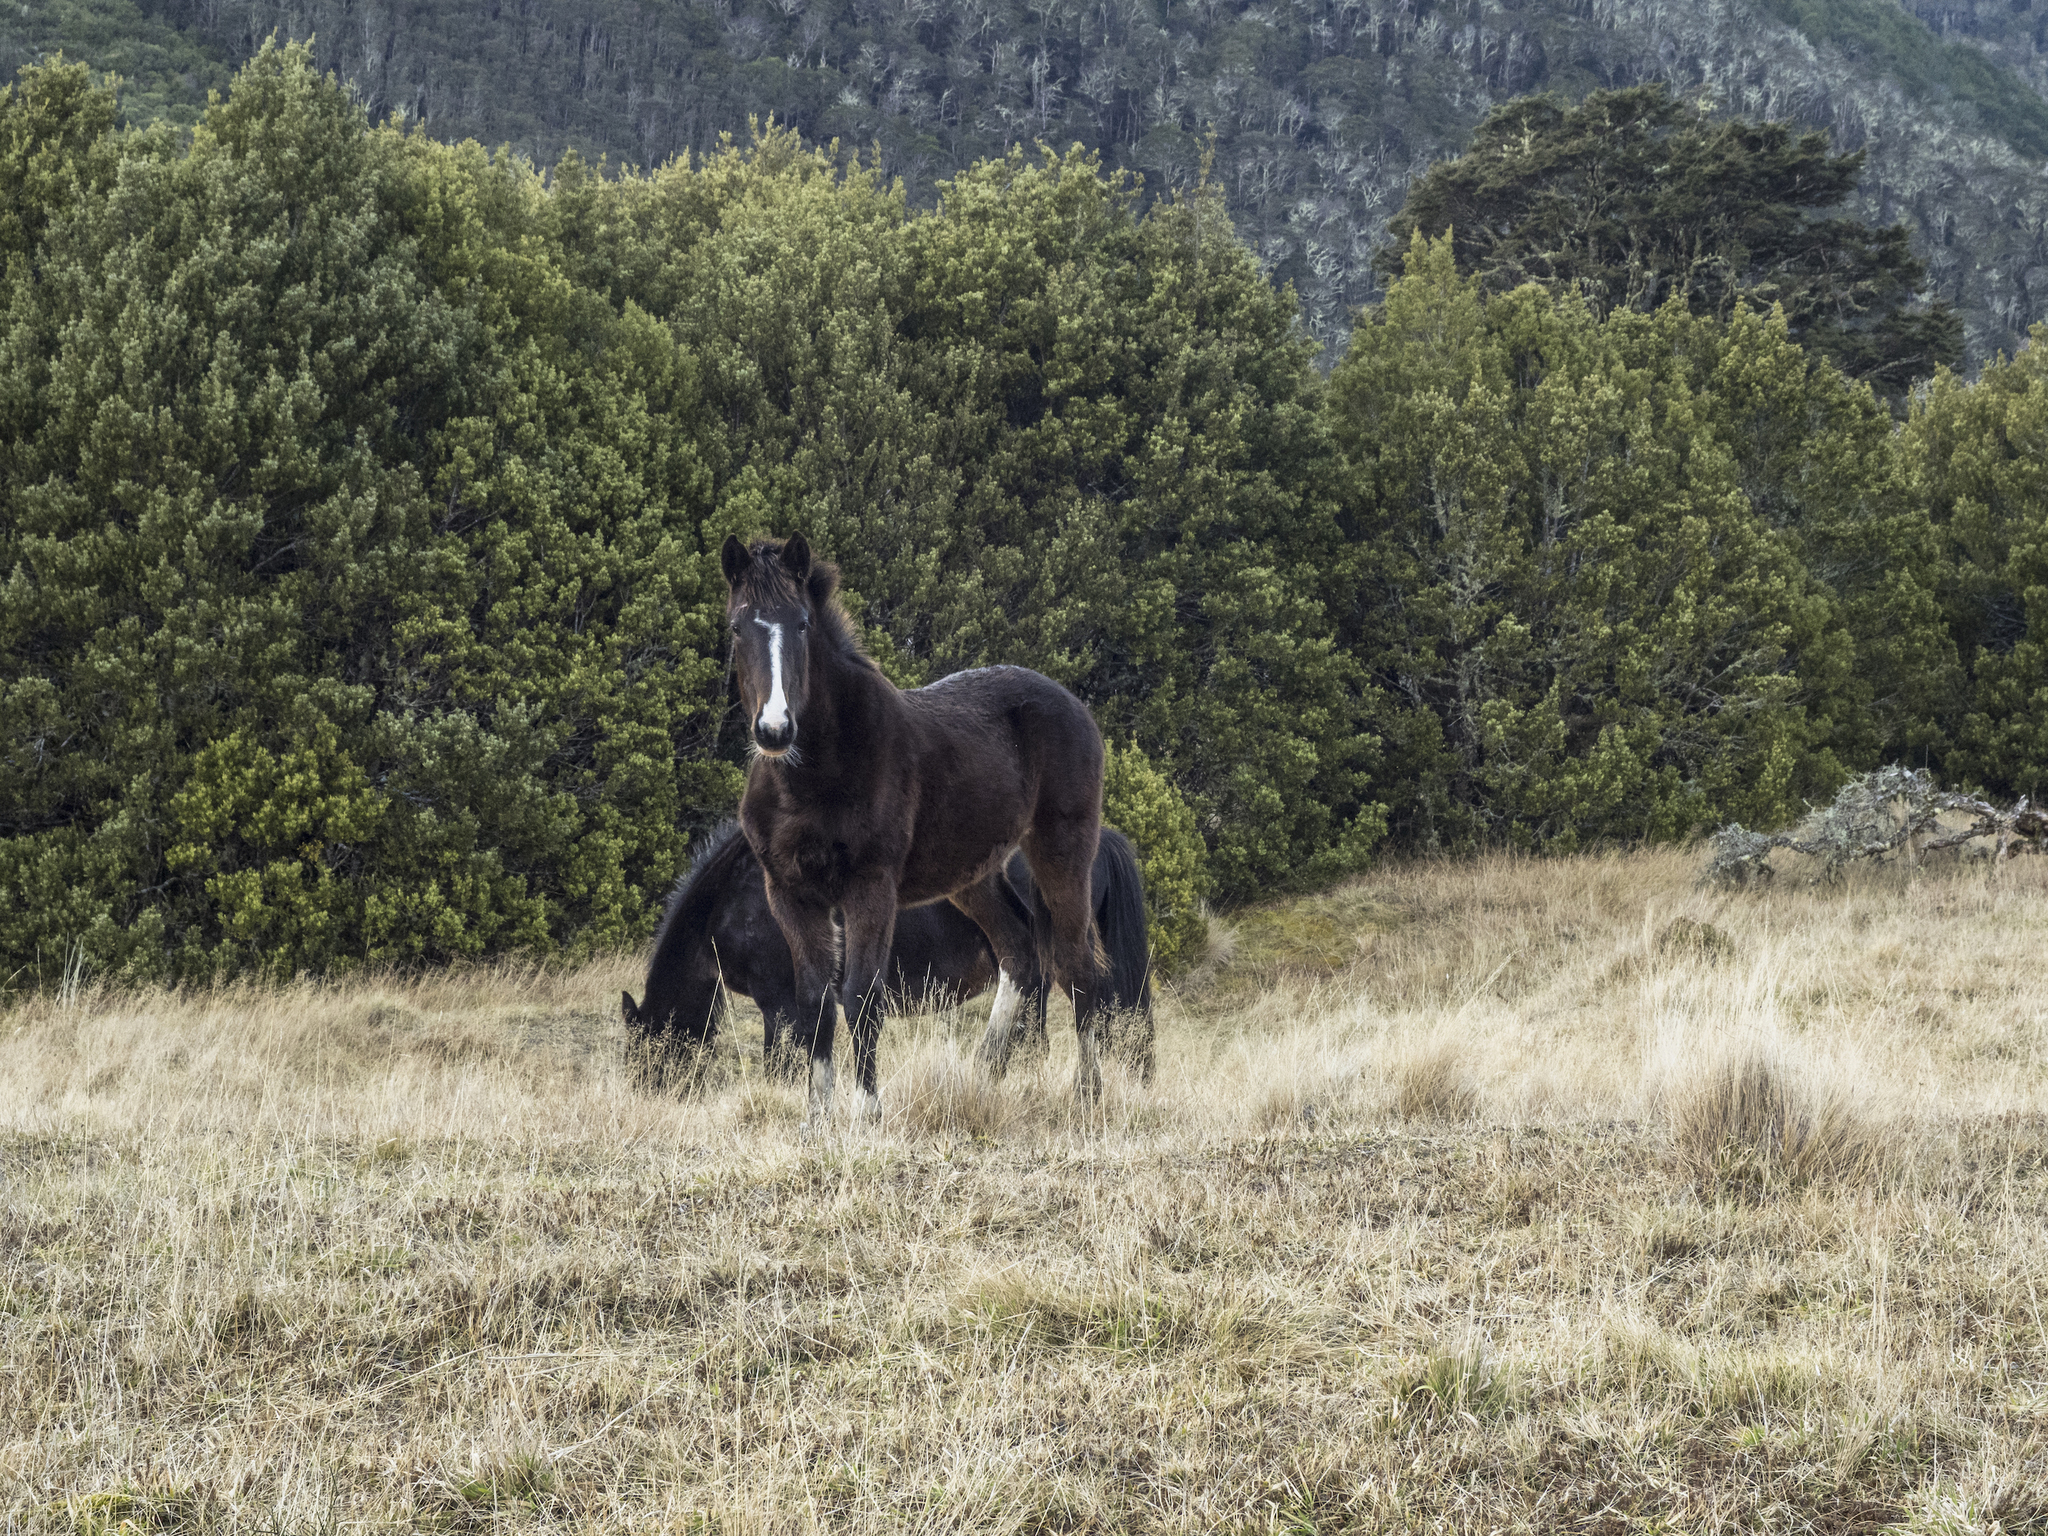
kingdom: Animalia
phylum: Chordata
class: Mammalia
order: Perissodactyla
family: Equidae
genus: Equus
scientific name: Equus caballus
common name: Horse
